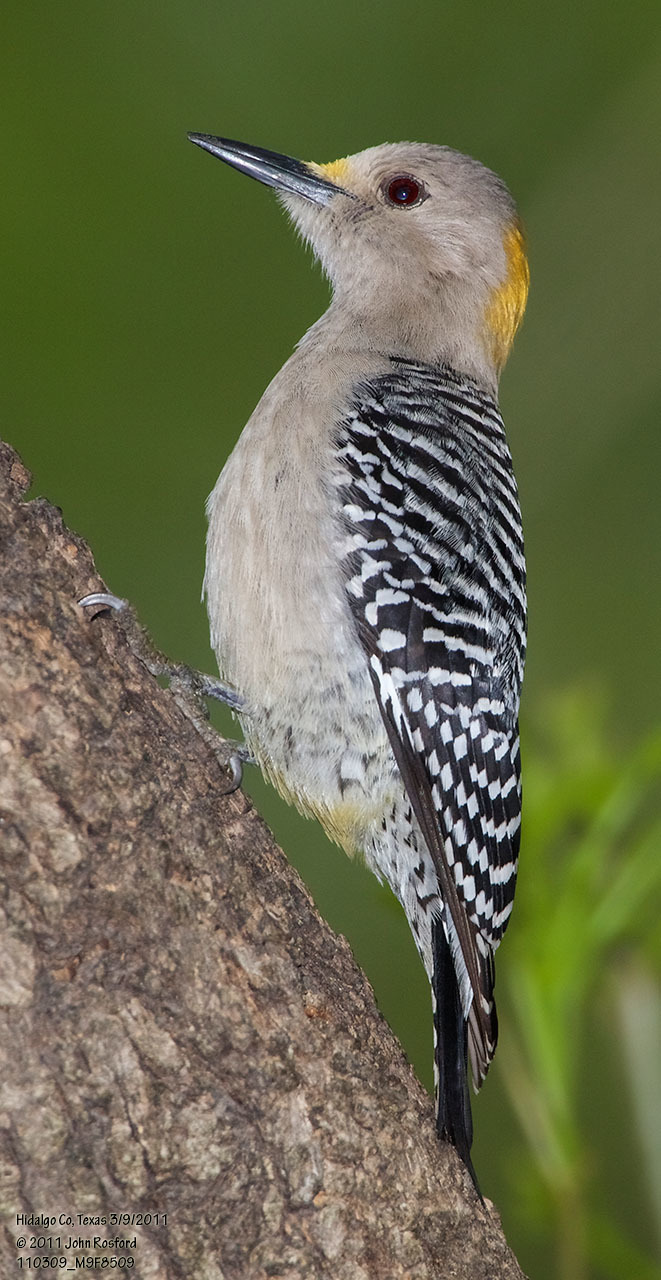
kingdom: Animalia
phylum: Chordata
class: Aves
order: Piciformes
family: Picidae
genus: Melanerpes
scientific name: Melanerpes aurifrons
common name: Golden-fronted woodpecker
